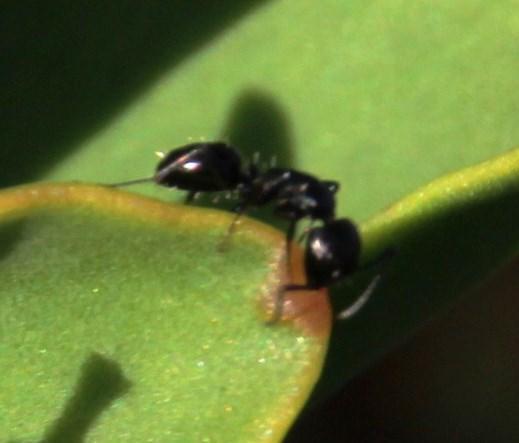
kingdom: Animalia
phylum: Arthropoda
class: Insecta
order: Hymenoptera
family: Formicidae
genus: Camponotus
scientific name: Camponotus niveosetosus
